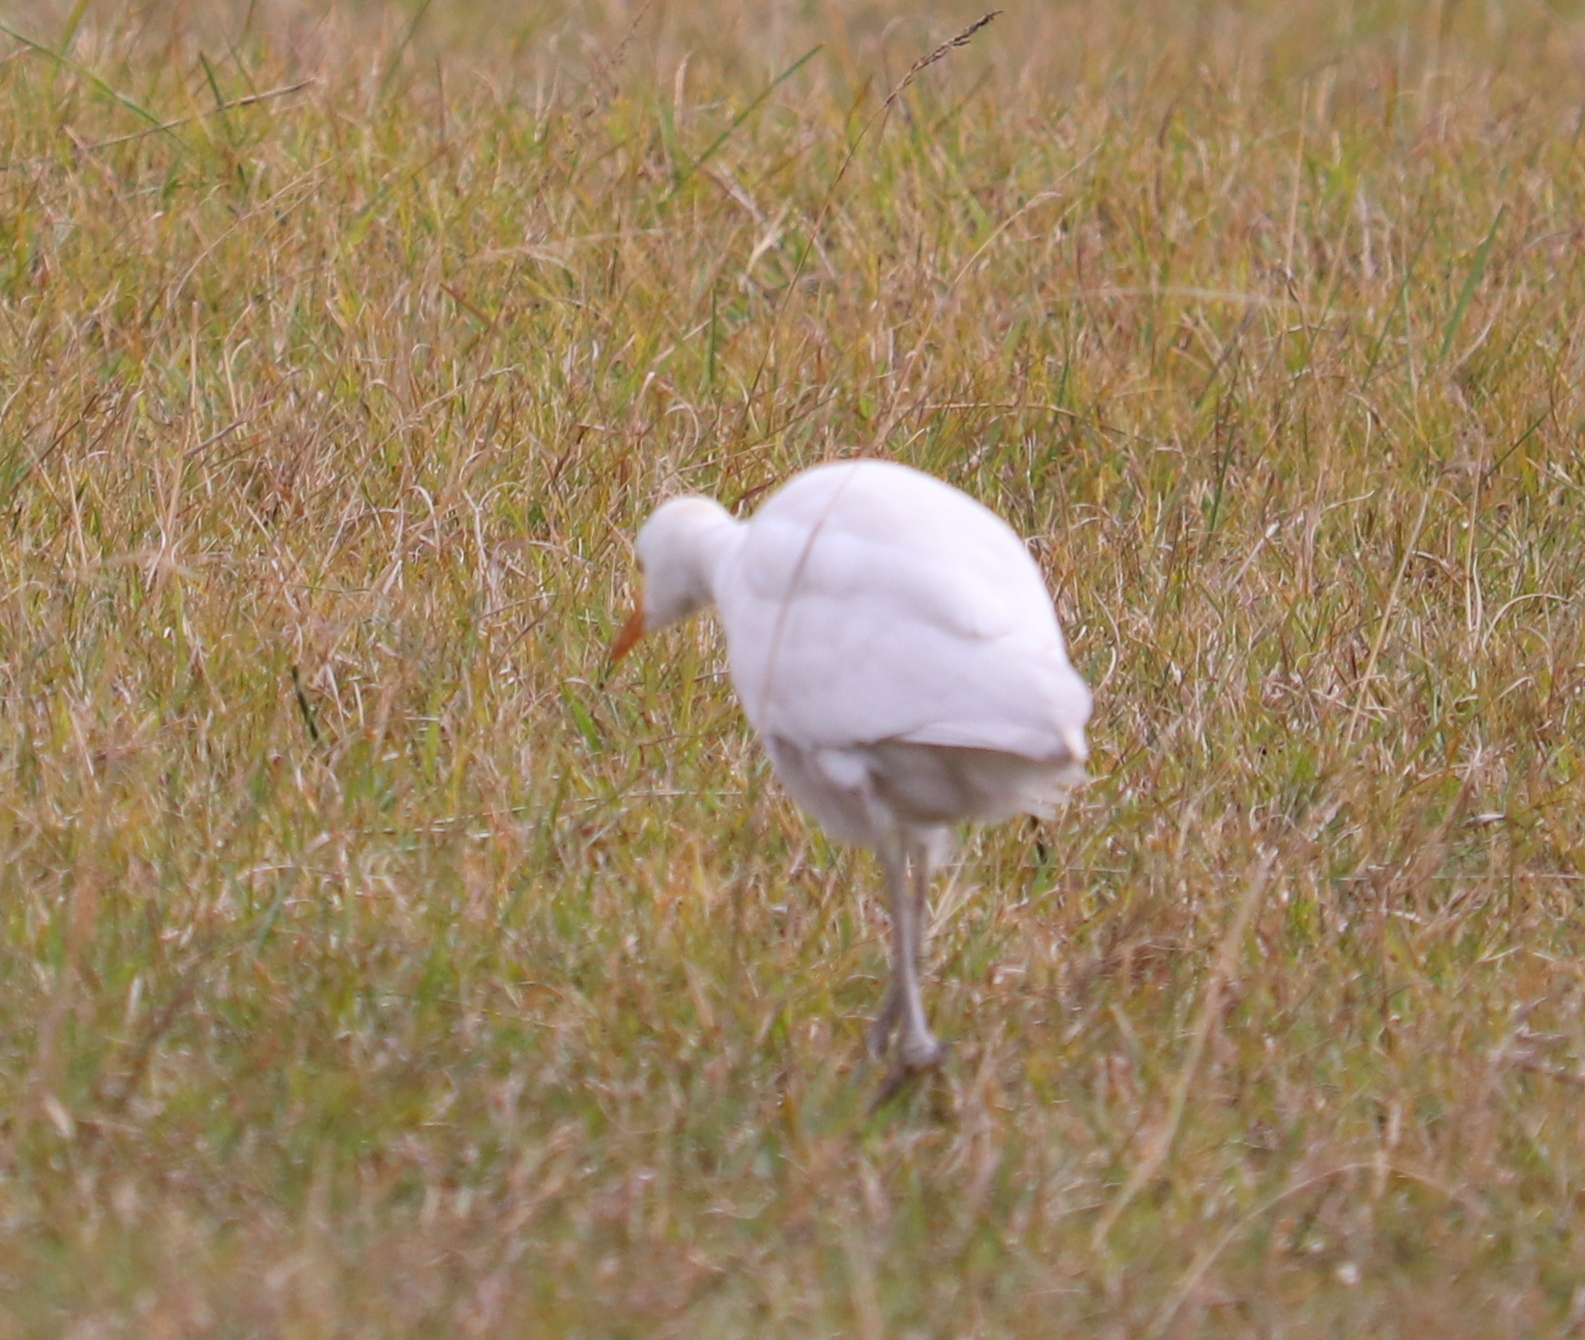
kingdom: Animalia
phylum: Chordata
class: Aves
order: Pelecaniformes
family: Ardeidae
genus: Bubulcus
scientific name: Bubulcus ibis
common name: Cattle egret
